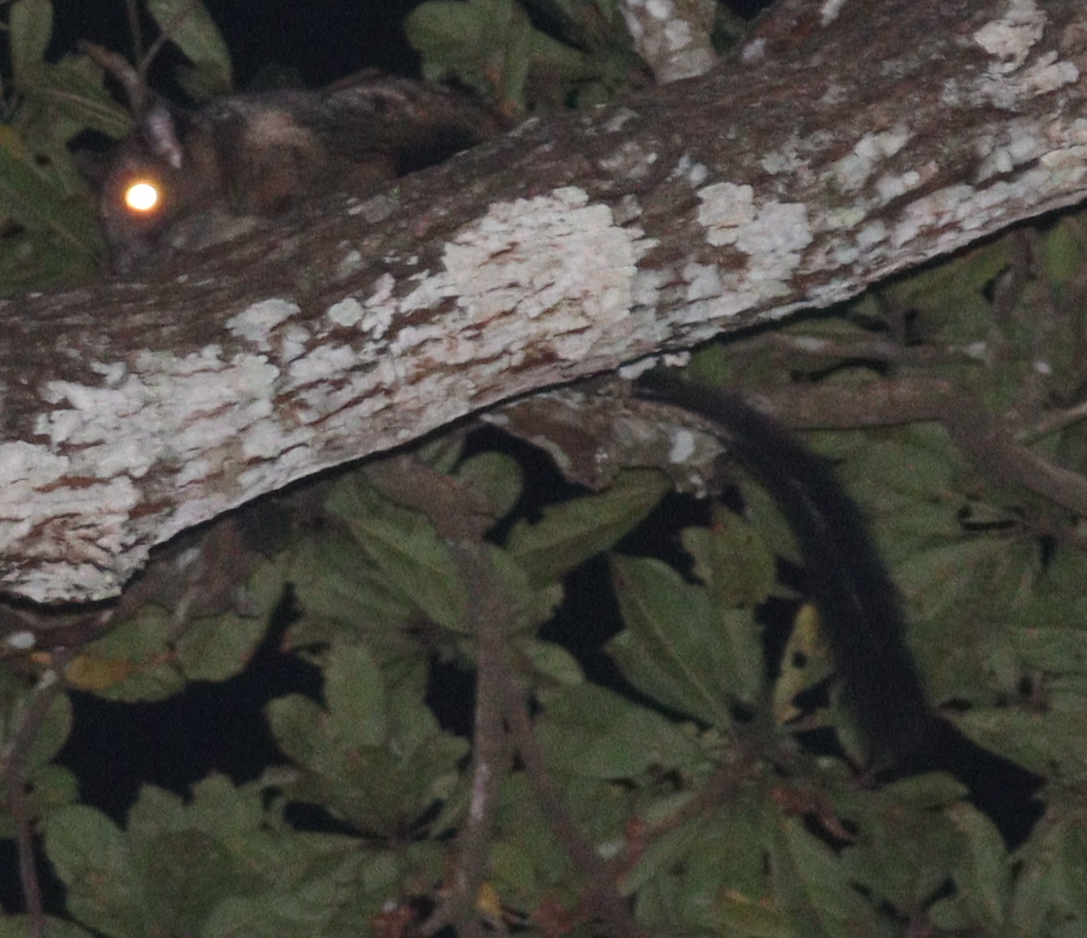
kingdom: Animalia
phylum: Chordata
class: Mammalia
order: Rodentia
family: Anomaluridae
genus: Anomalurus
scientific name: Anomalurus derbianus
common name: Lord derby's flying squirrel
